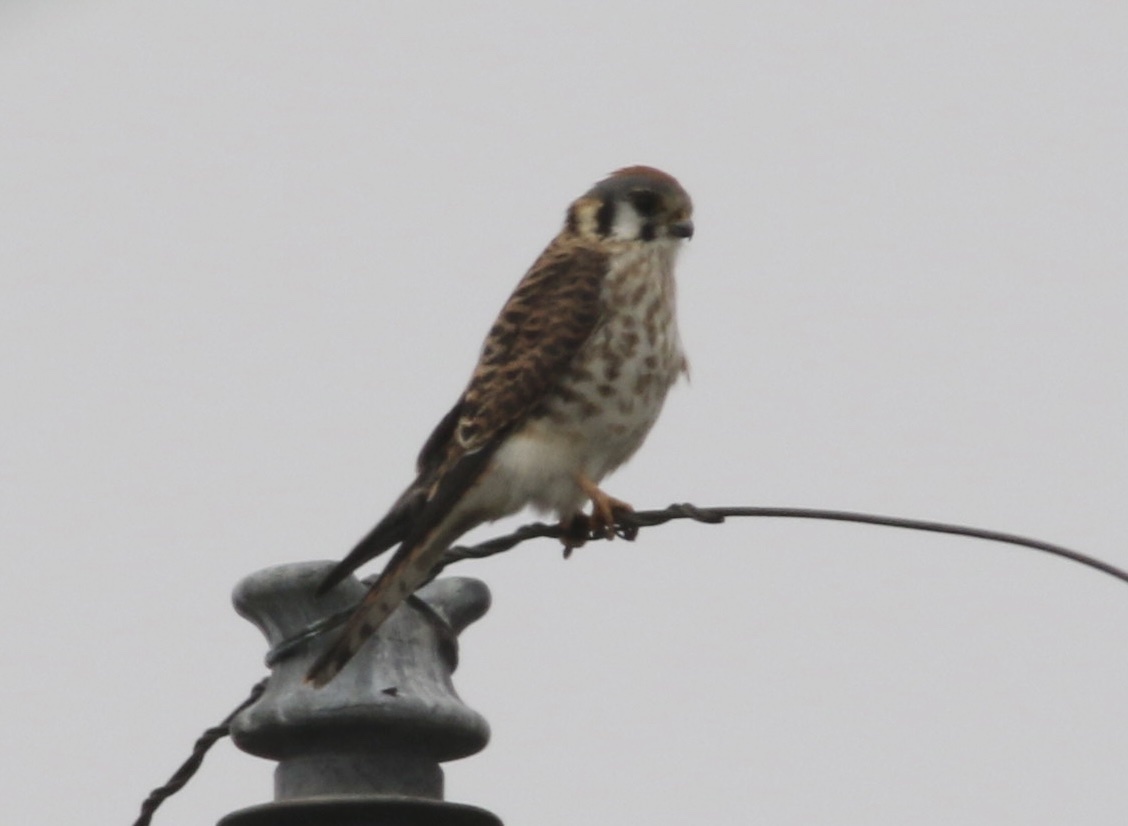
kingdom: Animalia
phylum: Chordata
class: Aves
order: Falconiformes
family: Falconidae
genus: Falco
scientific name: Falco sparverius
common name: American kestrel
